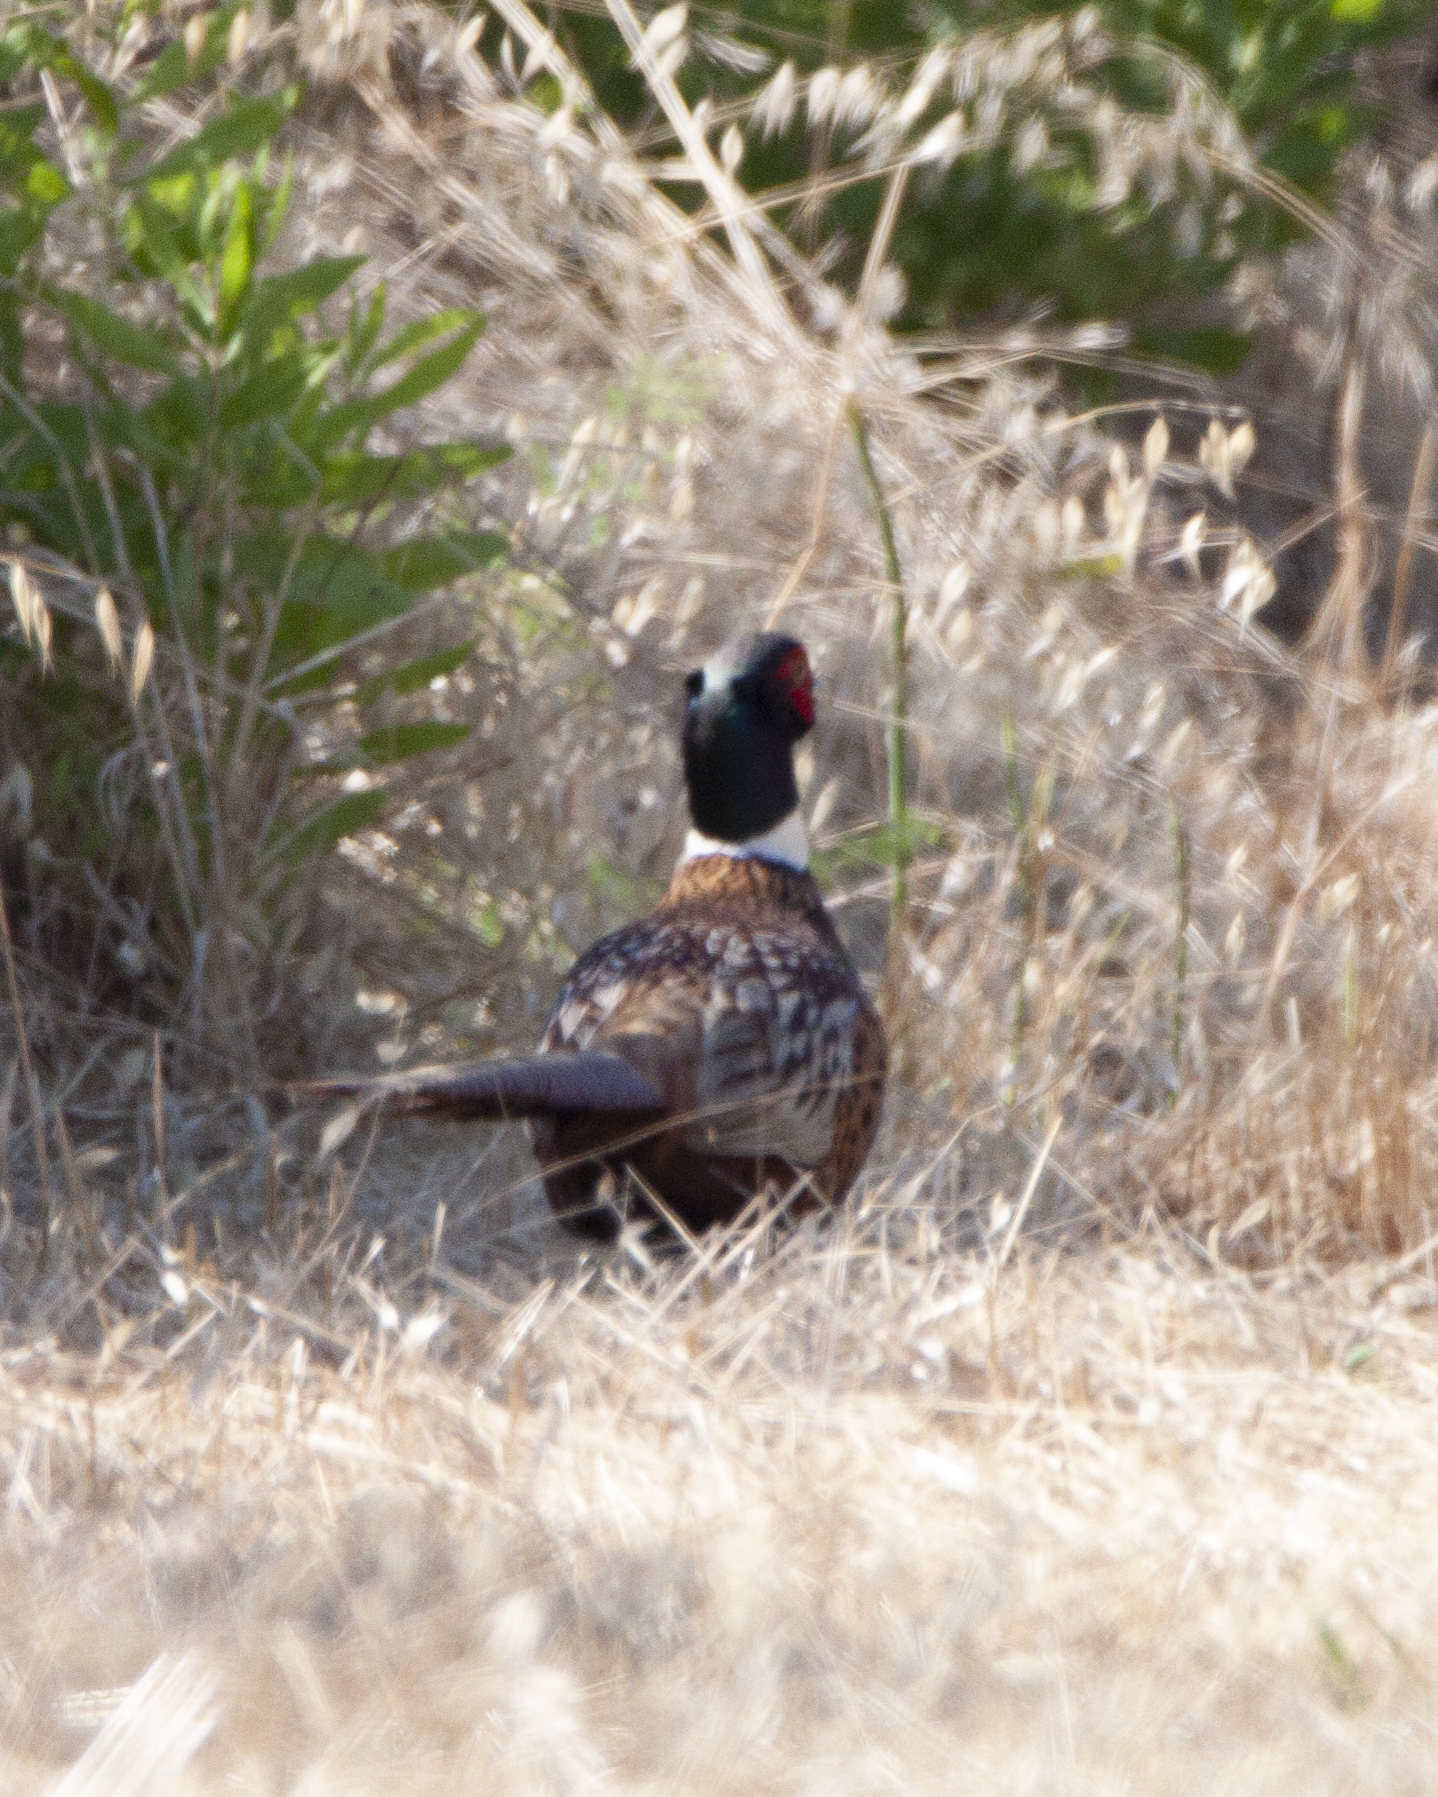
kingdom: Animalia
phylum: Chordata
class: Aves
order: Galliformes
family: Phasianidae
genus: Phasianus
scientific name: Phasianus colchicus
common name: Common pheasant
